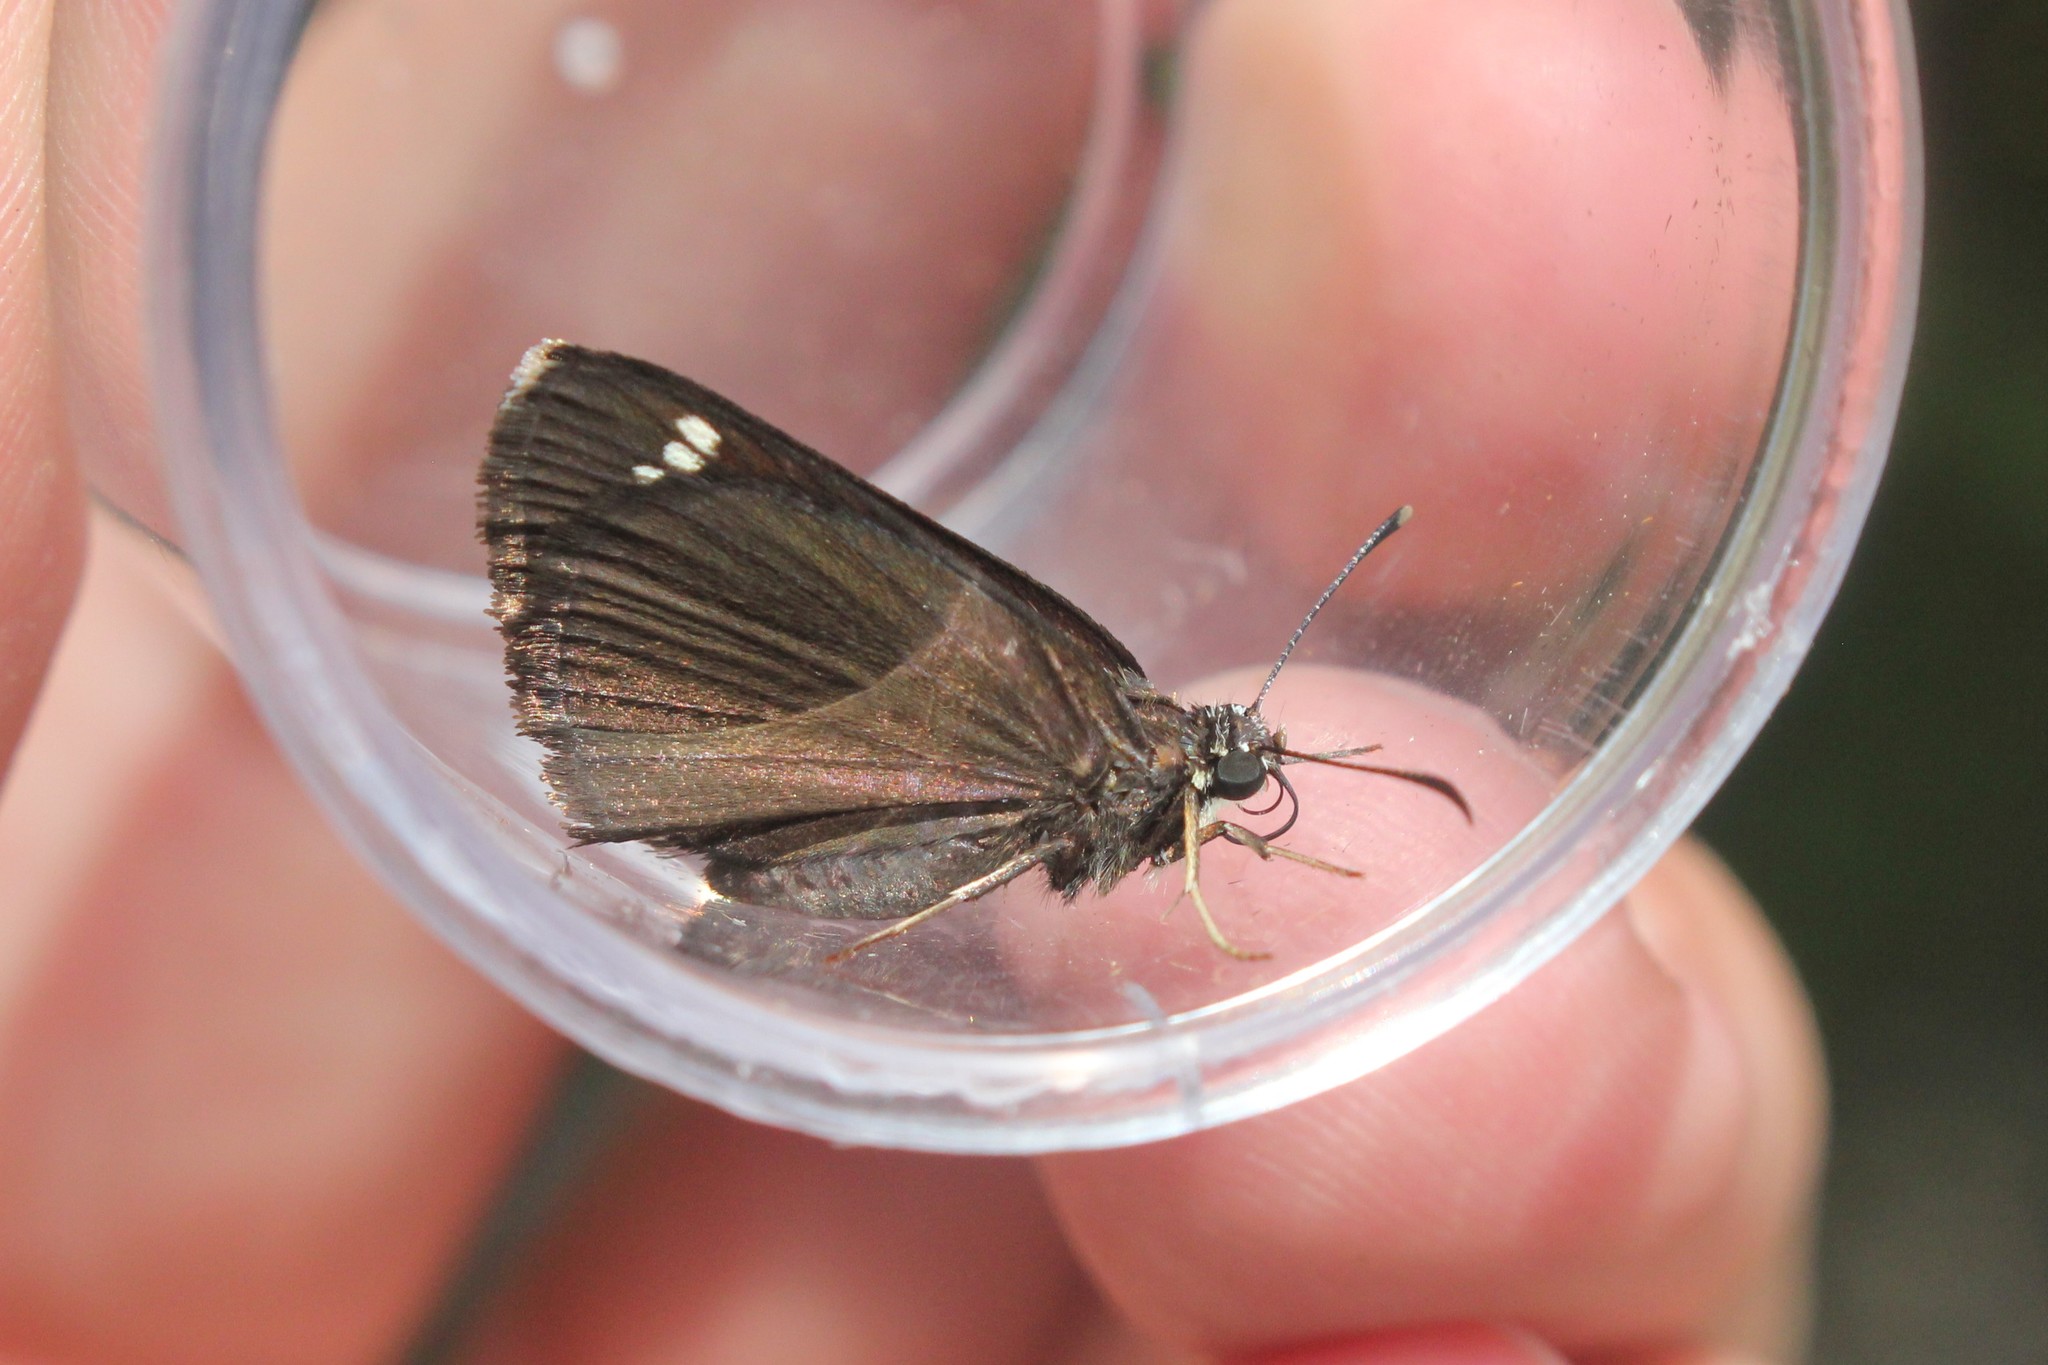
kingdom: Animalia
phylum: Arthropoda
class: Insecta
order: Lepidoptera
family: Hesperiidae
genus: Pholisora
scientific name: Pholisora catullus
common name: Common sootywing
